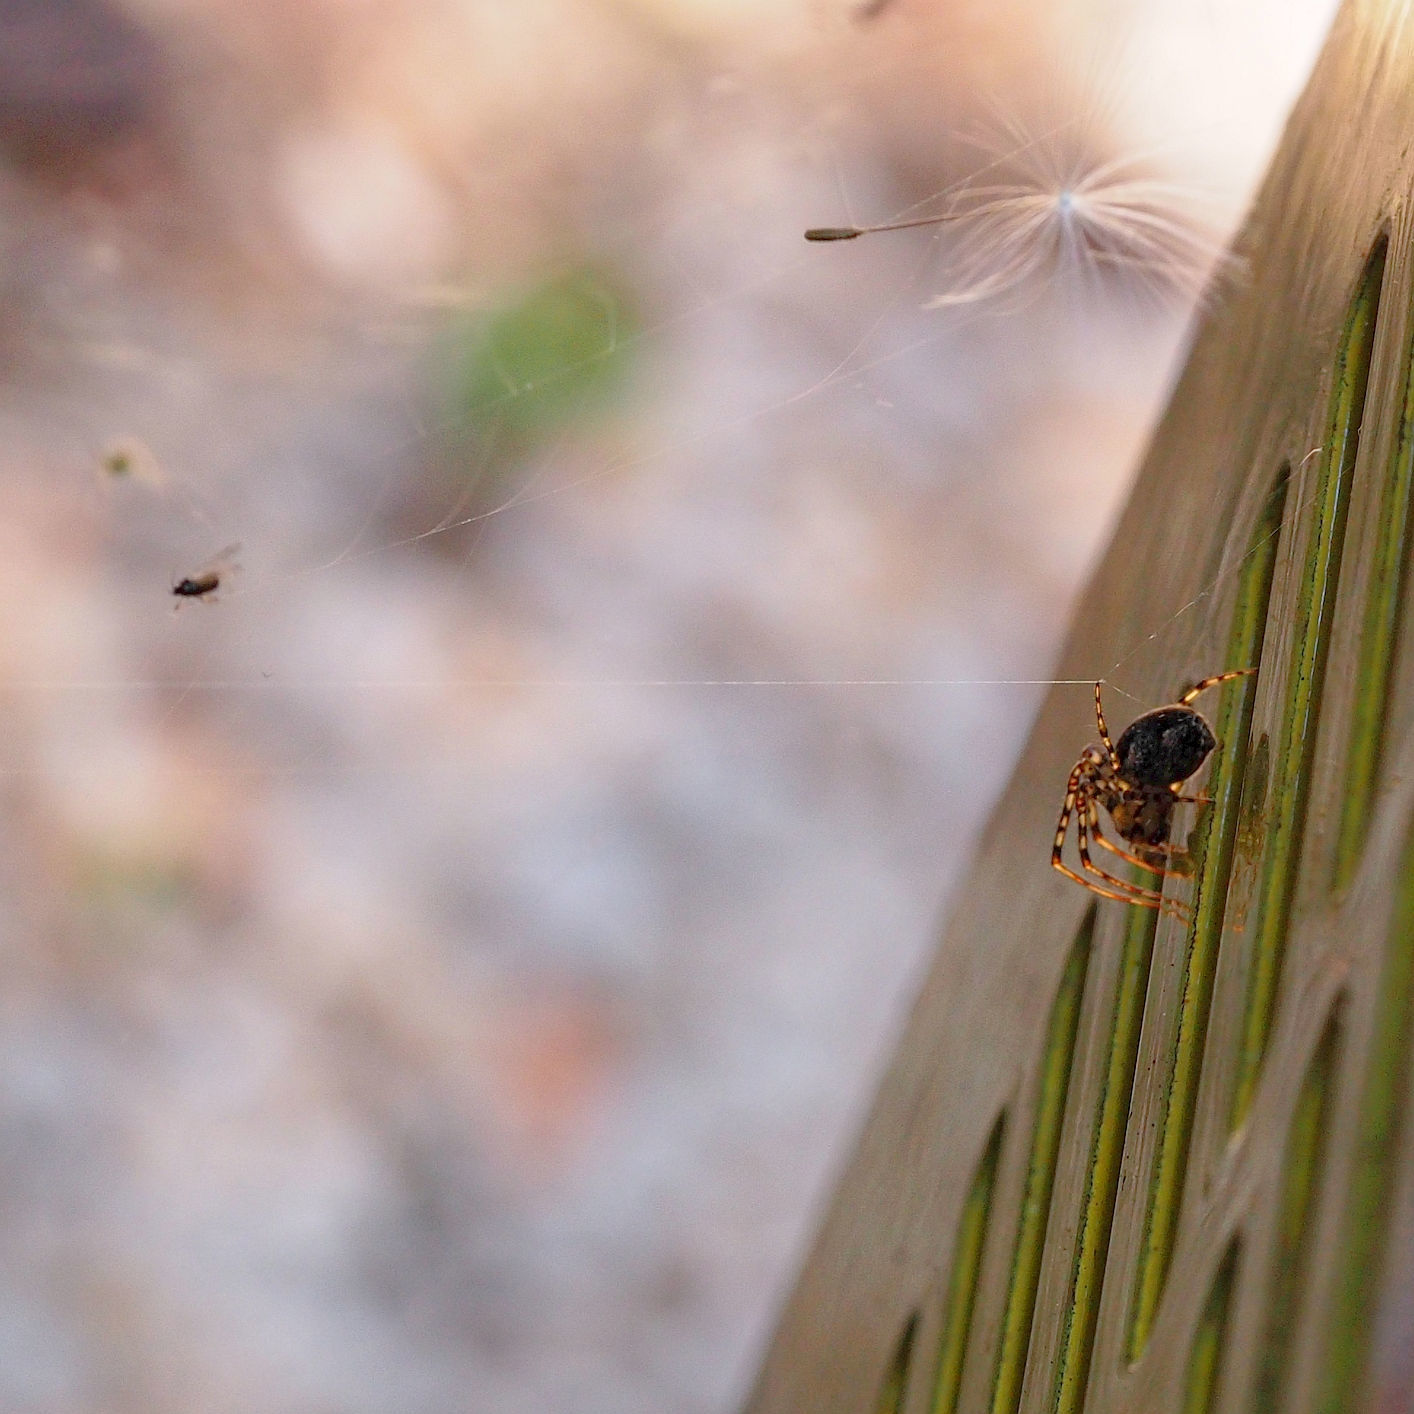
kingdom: Animalia
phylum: Arthropoda
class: Arachnida
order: Araneae
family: Tetragnathidae
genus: Metellina
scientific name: Metellina merianae
